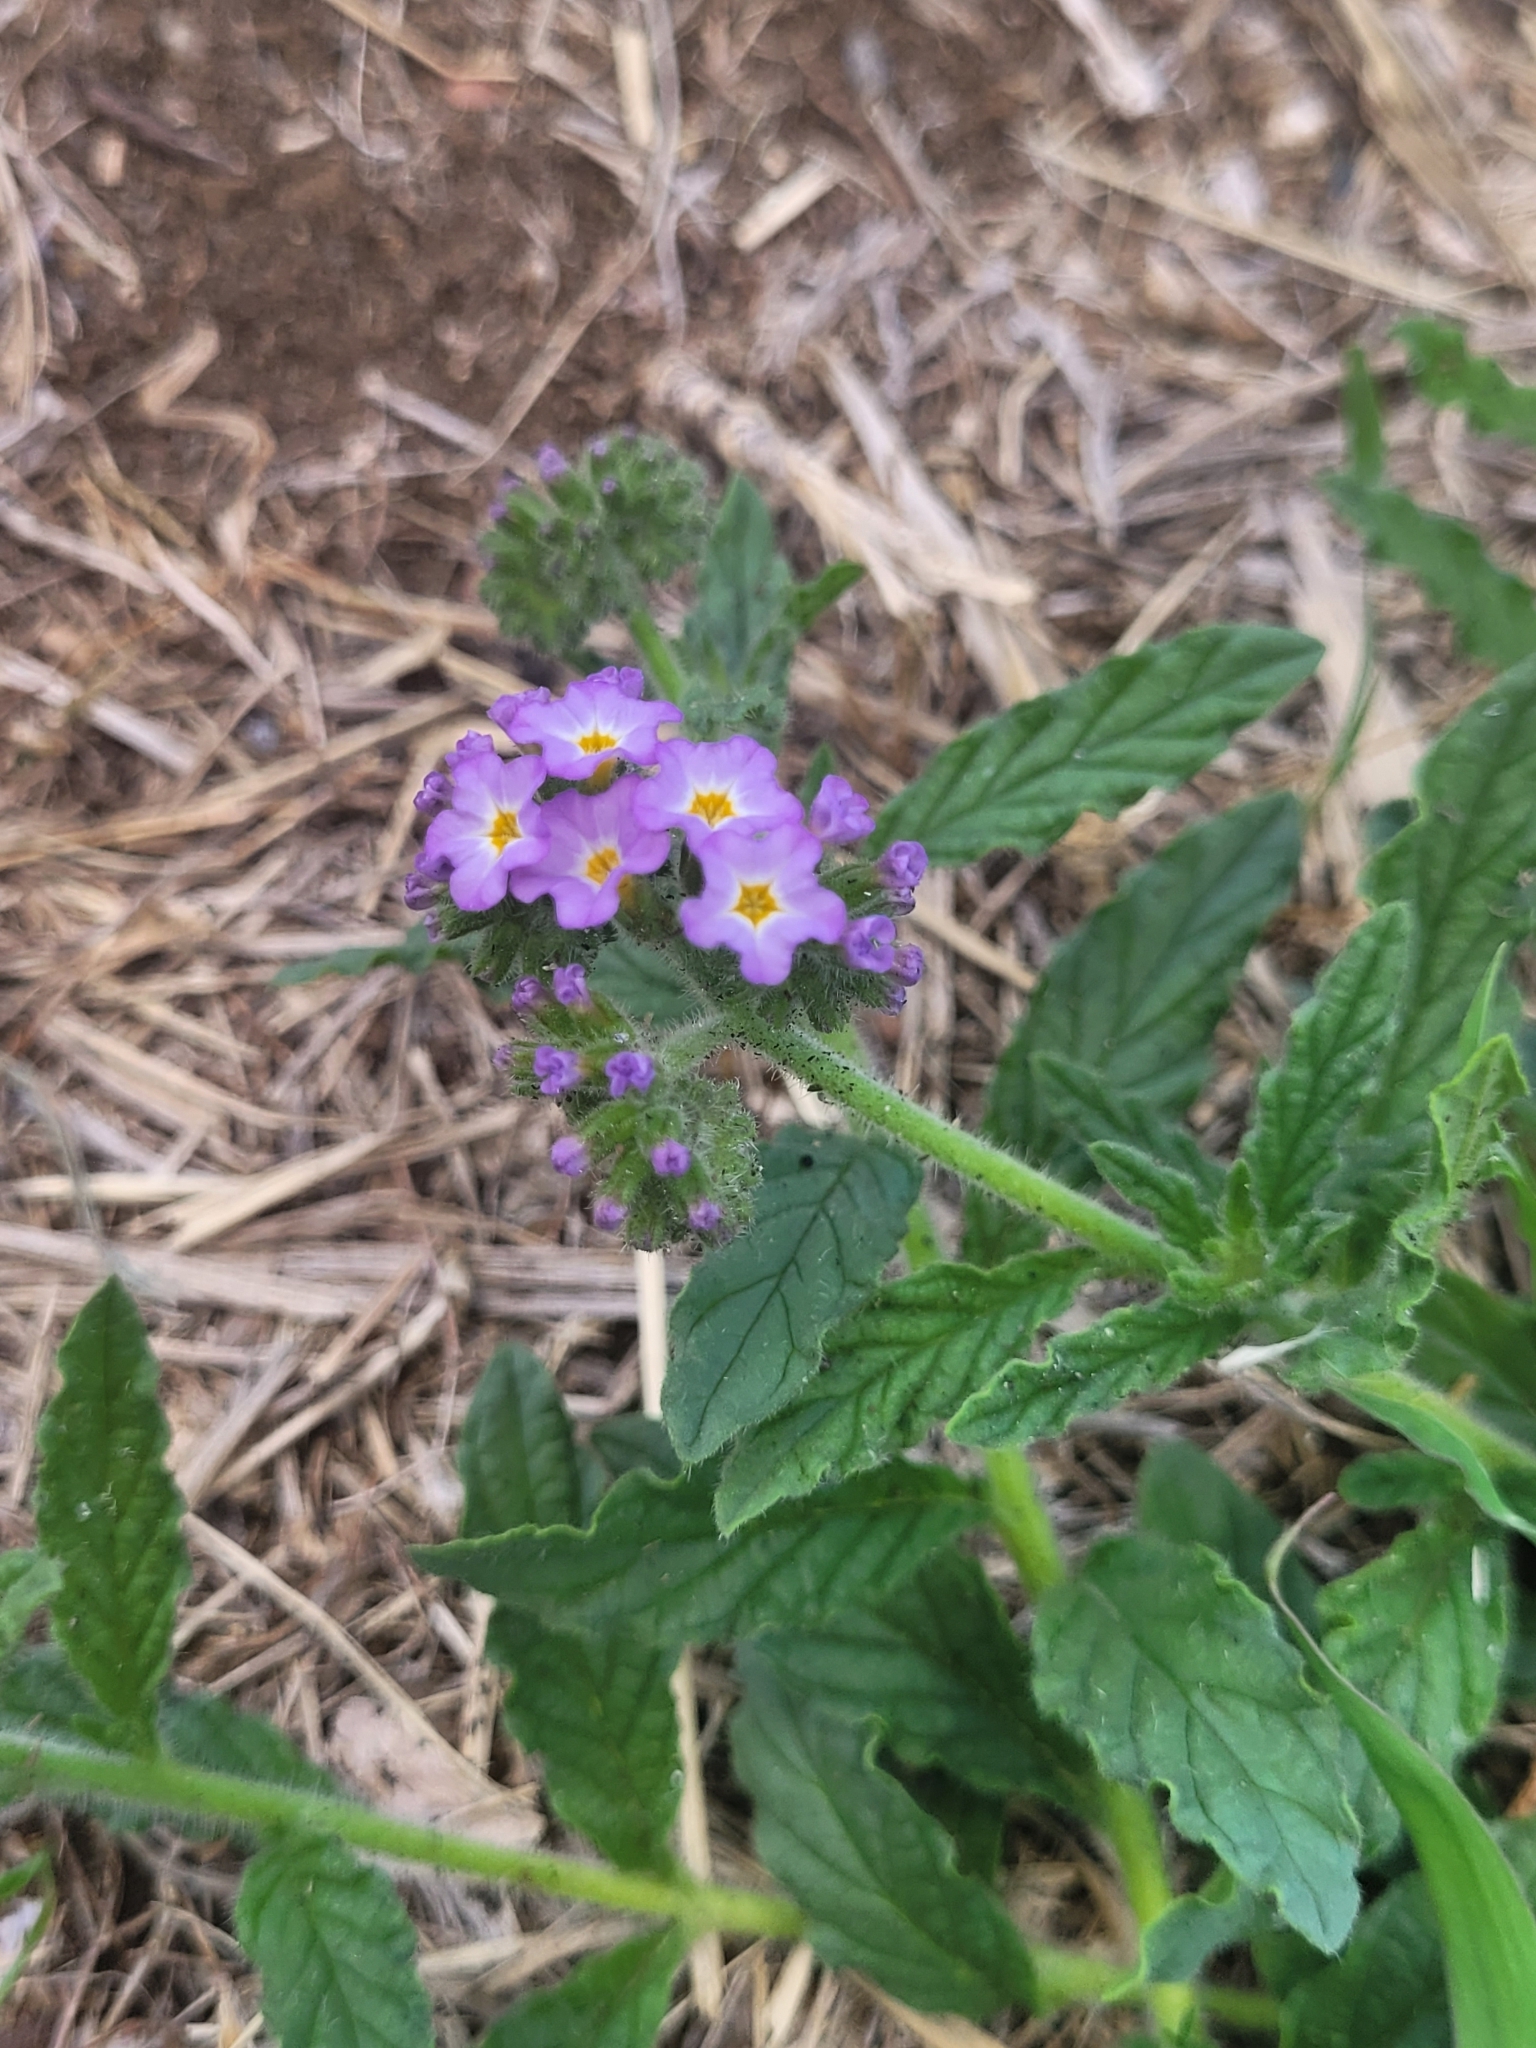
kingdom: Plantae
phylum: Tracheophyta
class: Magnoliopsida
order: Boraginales
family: Heliotropiaceae
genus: Heliotropium
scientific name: Heliotropium amplexicaule
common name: Clasping heliotrope
